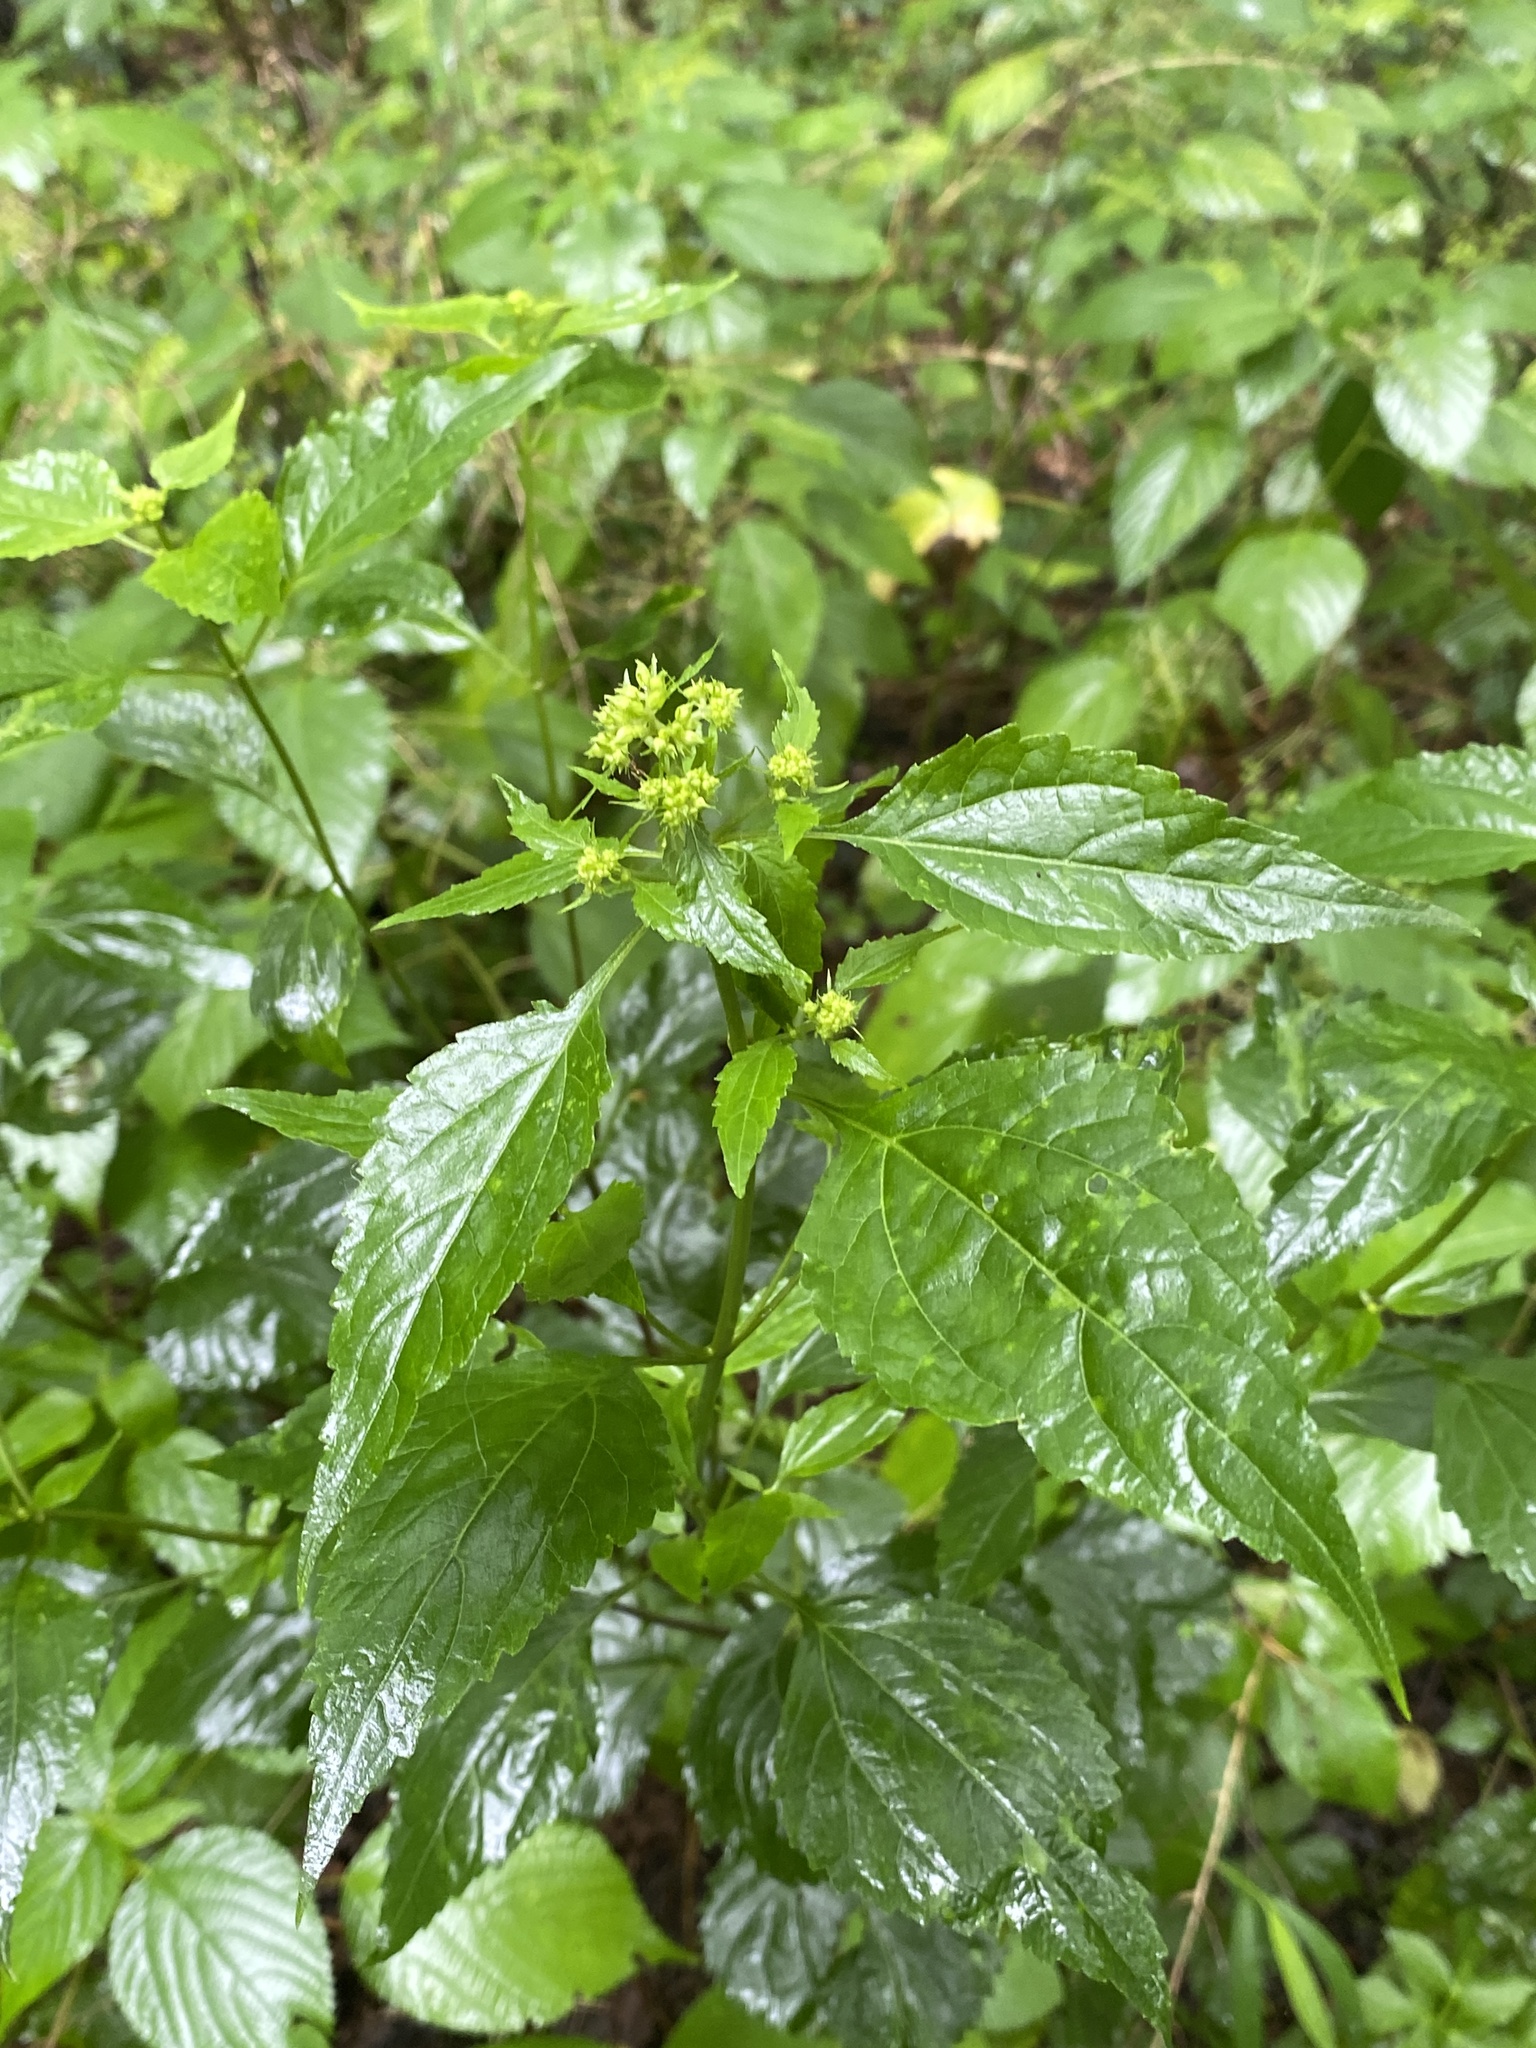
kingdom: Plantae
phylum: Tracheophyta
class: Magnoliopsida
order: Asterales
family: Asteraceae
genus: Ageratina
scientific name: Ageratina altissima
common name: White snakeroot
